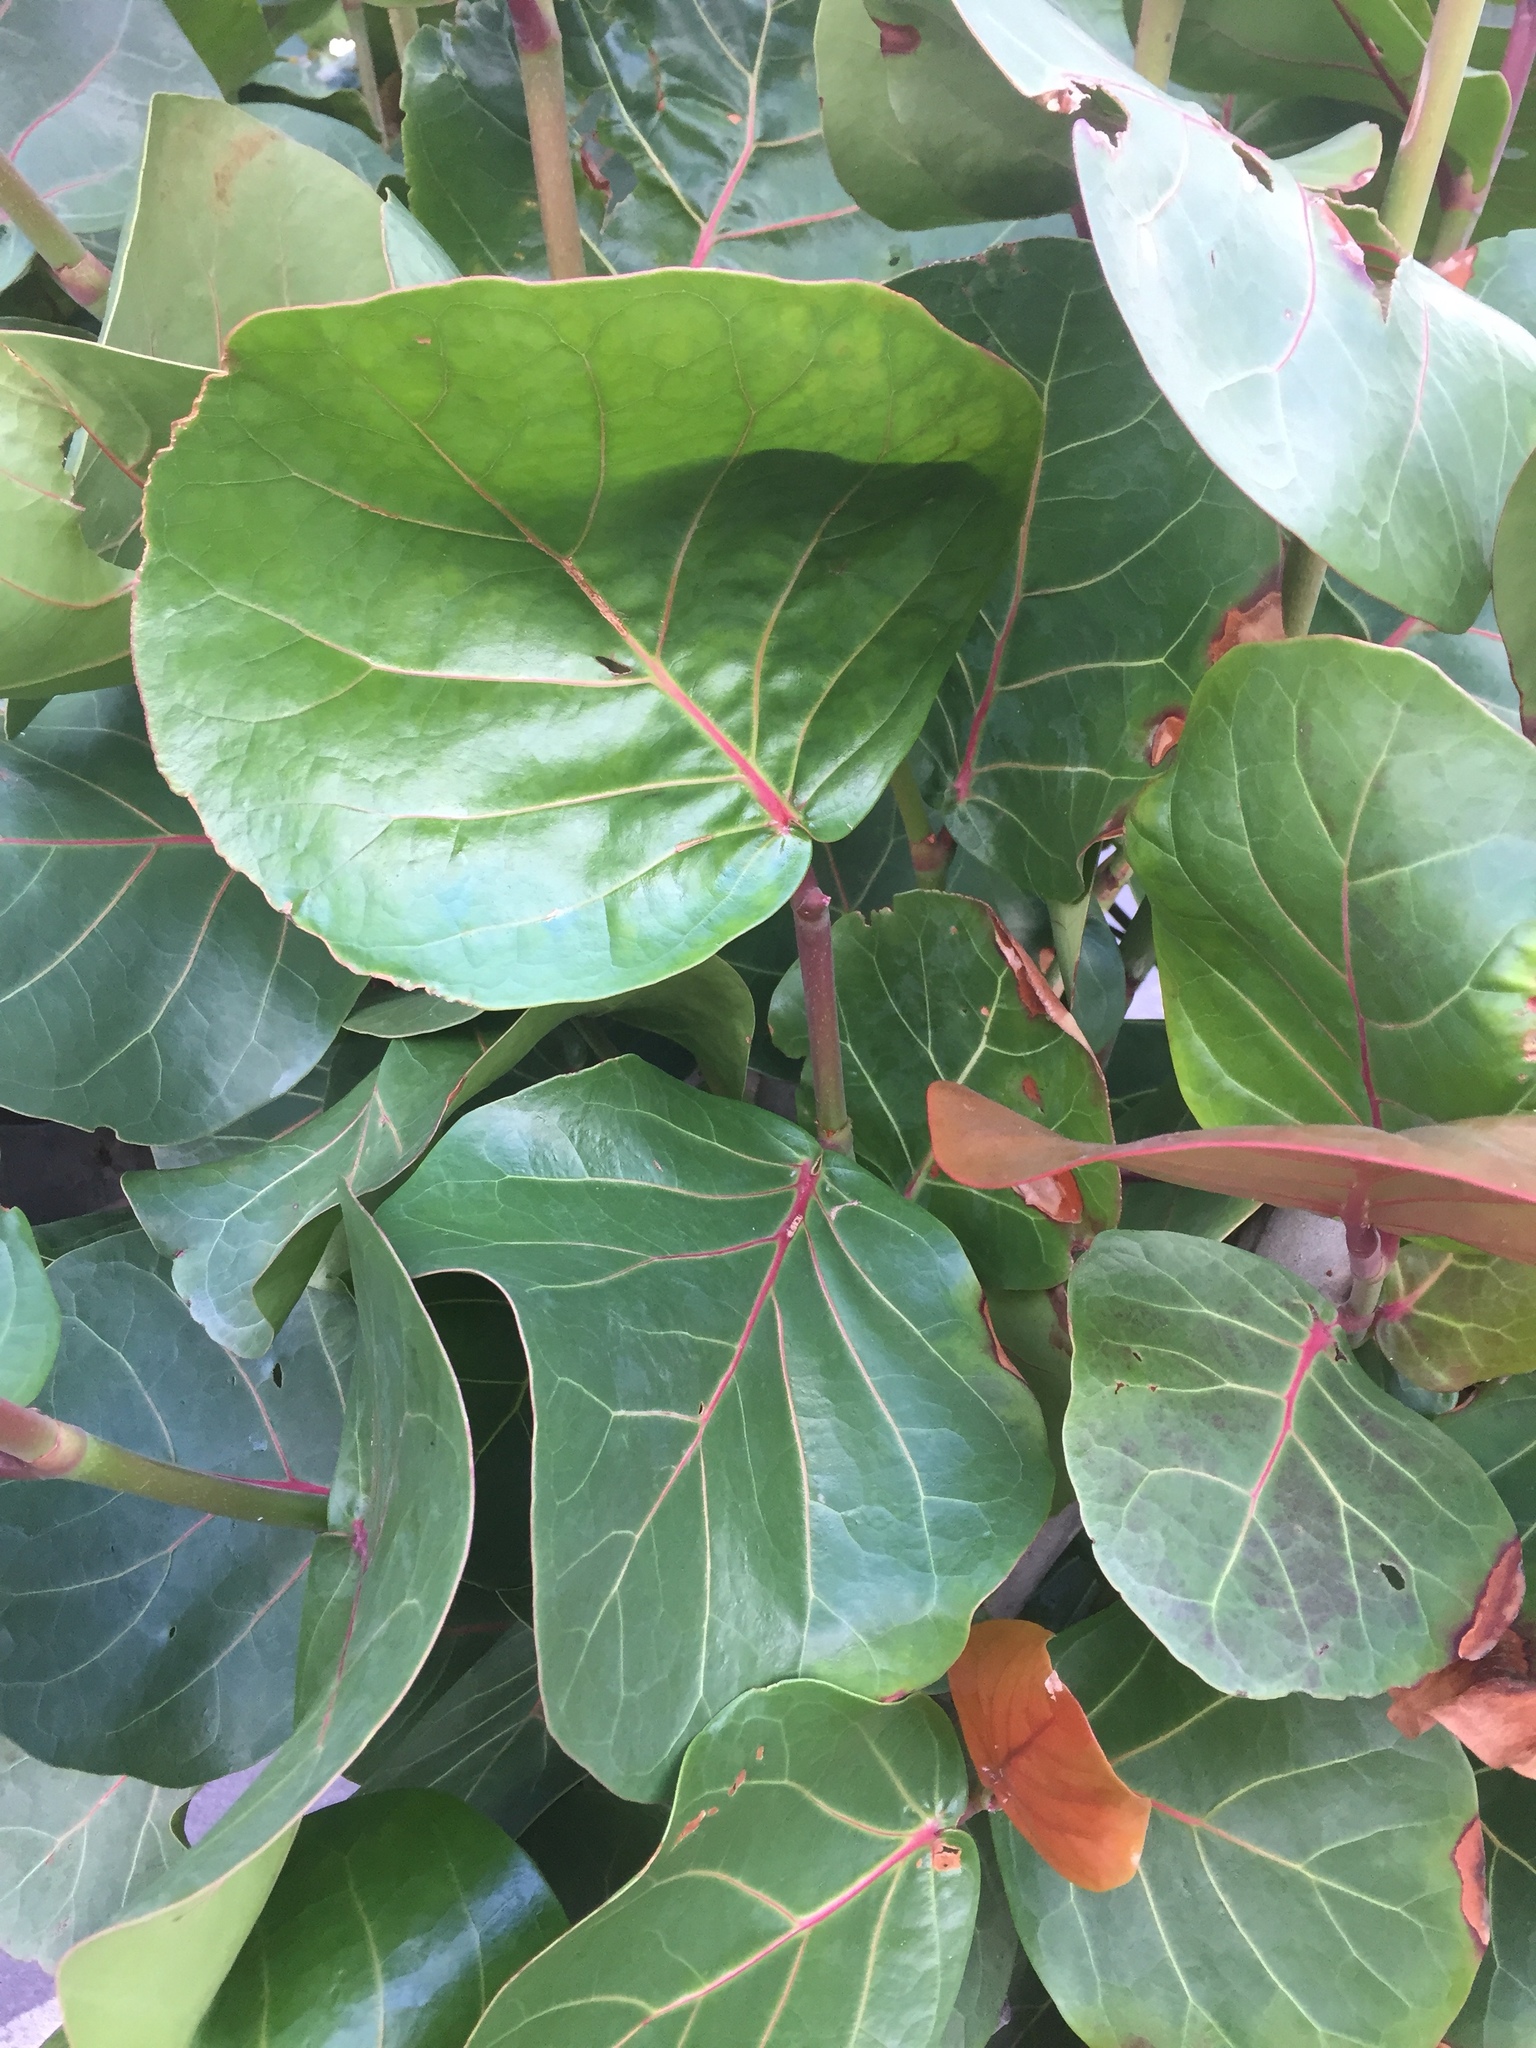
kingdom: Plantae
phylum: Tracheophyta
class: Magnoliopsida
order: Caryophyllales
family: Polygonaceae
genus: Coccoloba
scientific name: Coccoloba uvifera
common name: Seagrape
